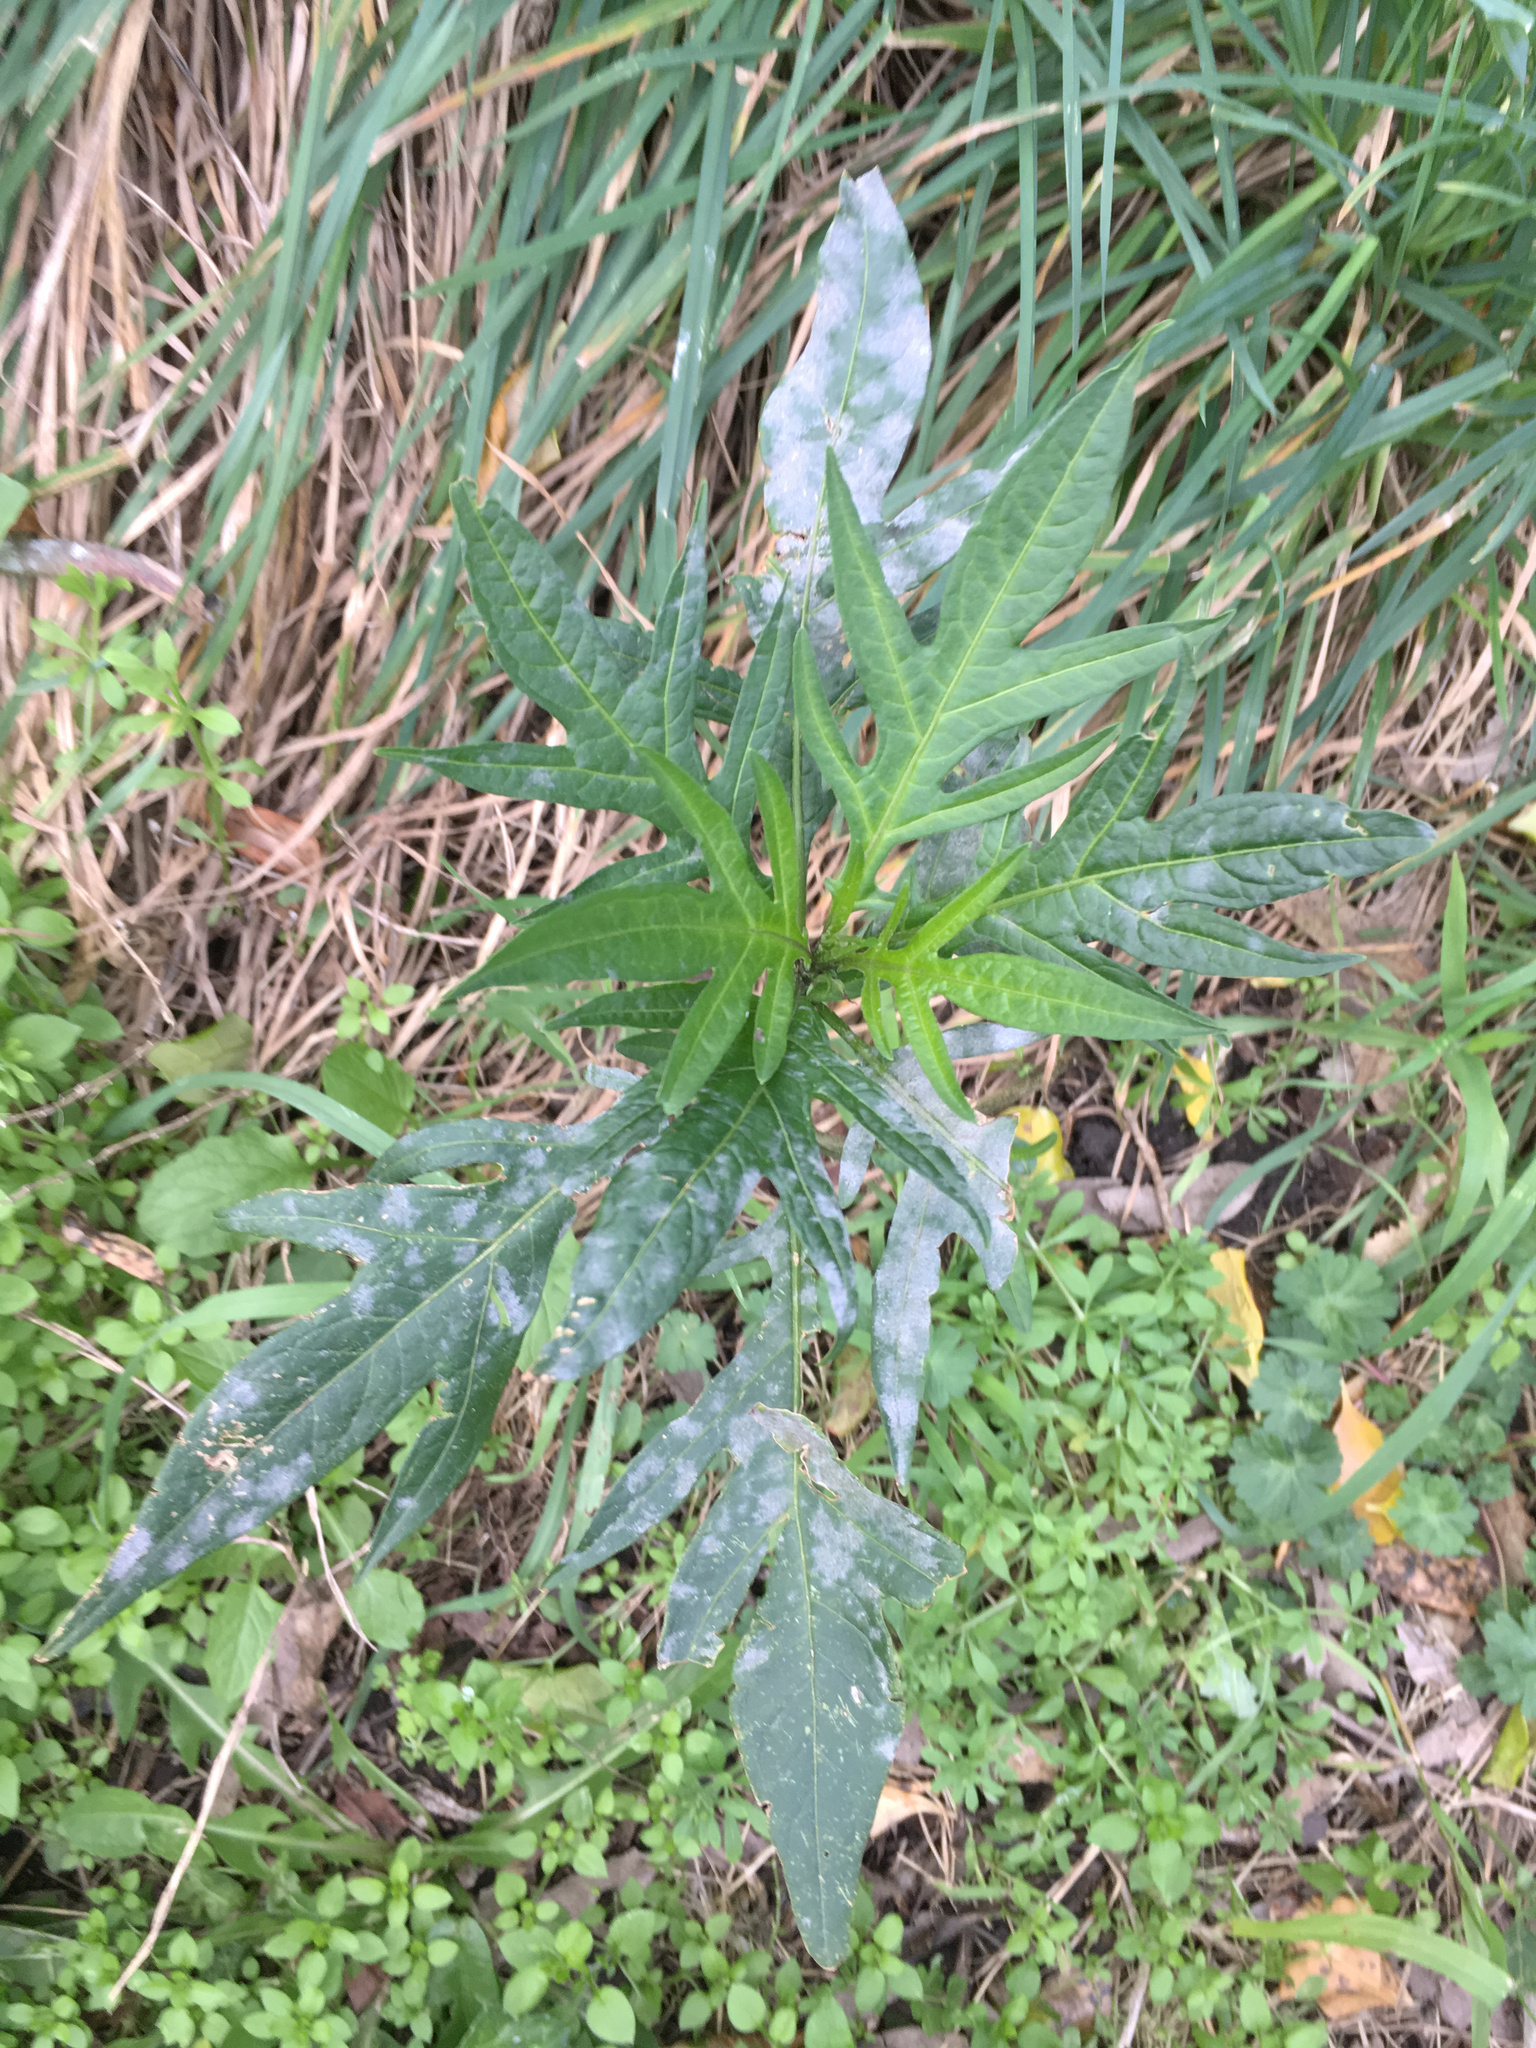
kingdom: Fungi
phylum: Ascomycota
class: Leotiomycetes
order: Helotiales
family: Erysiphaceae
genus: Golovinomyces
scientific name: Golovinomyces longipes
